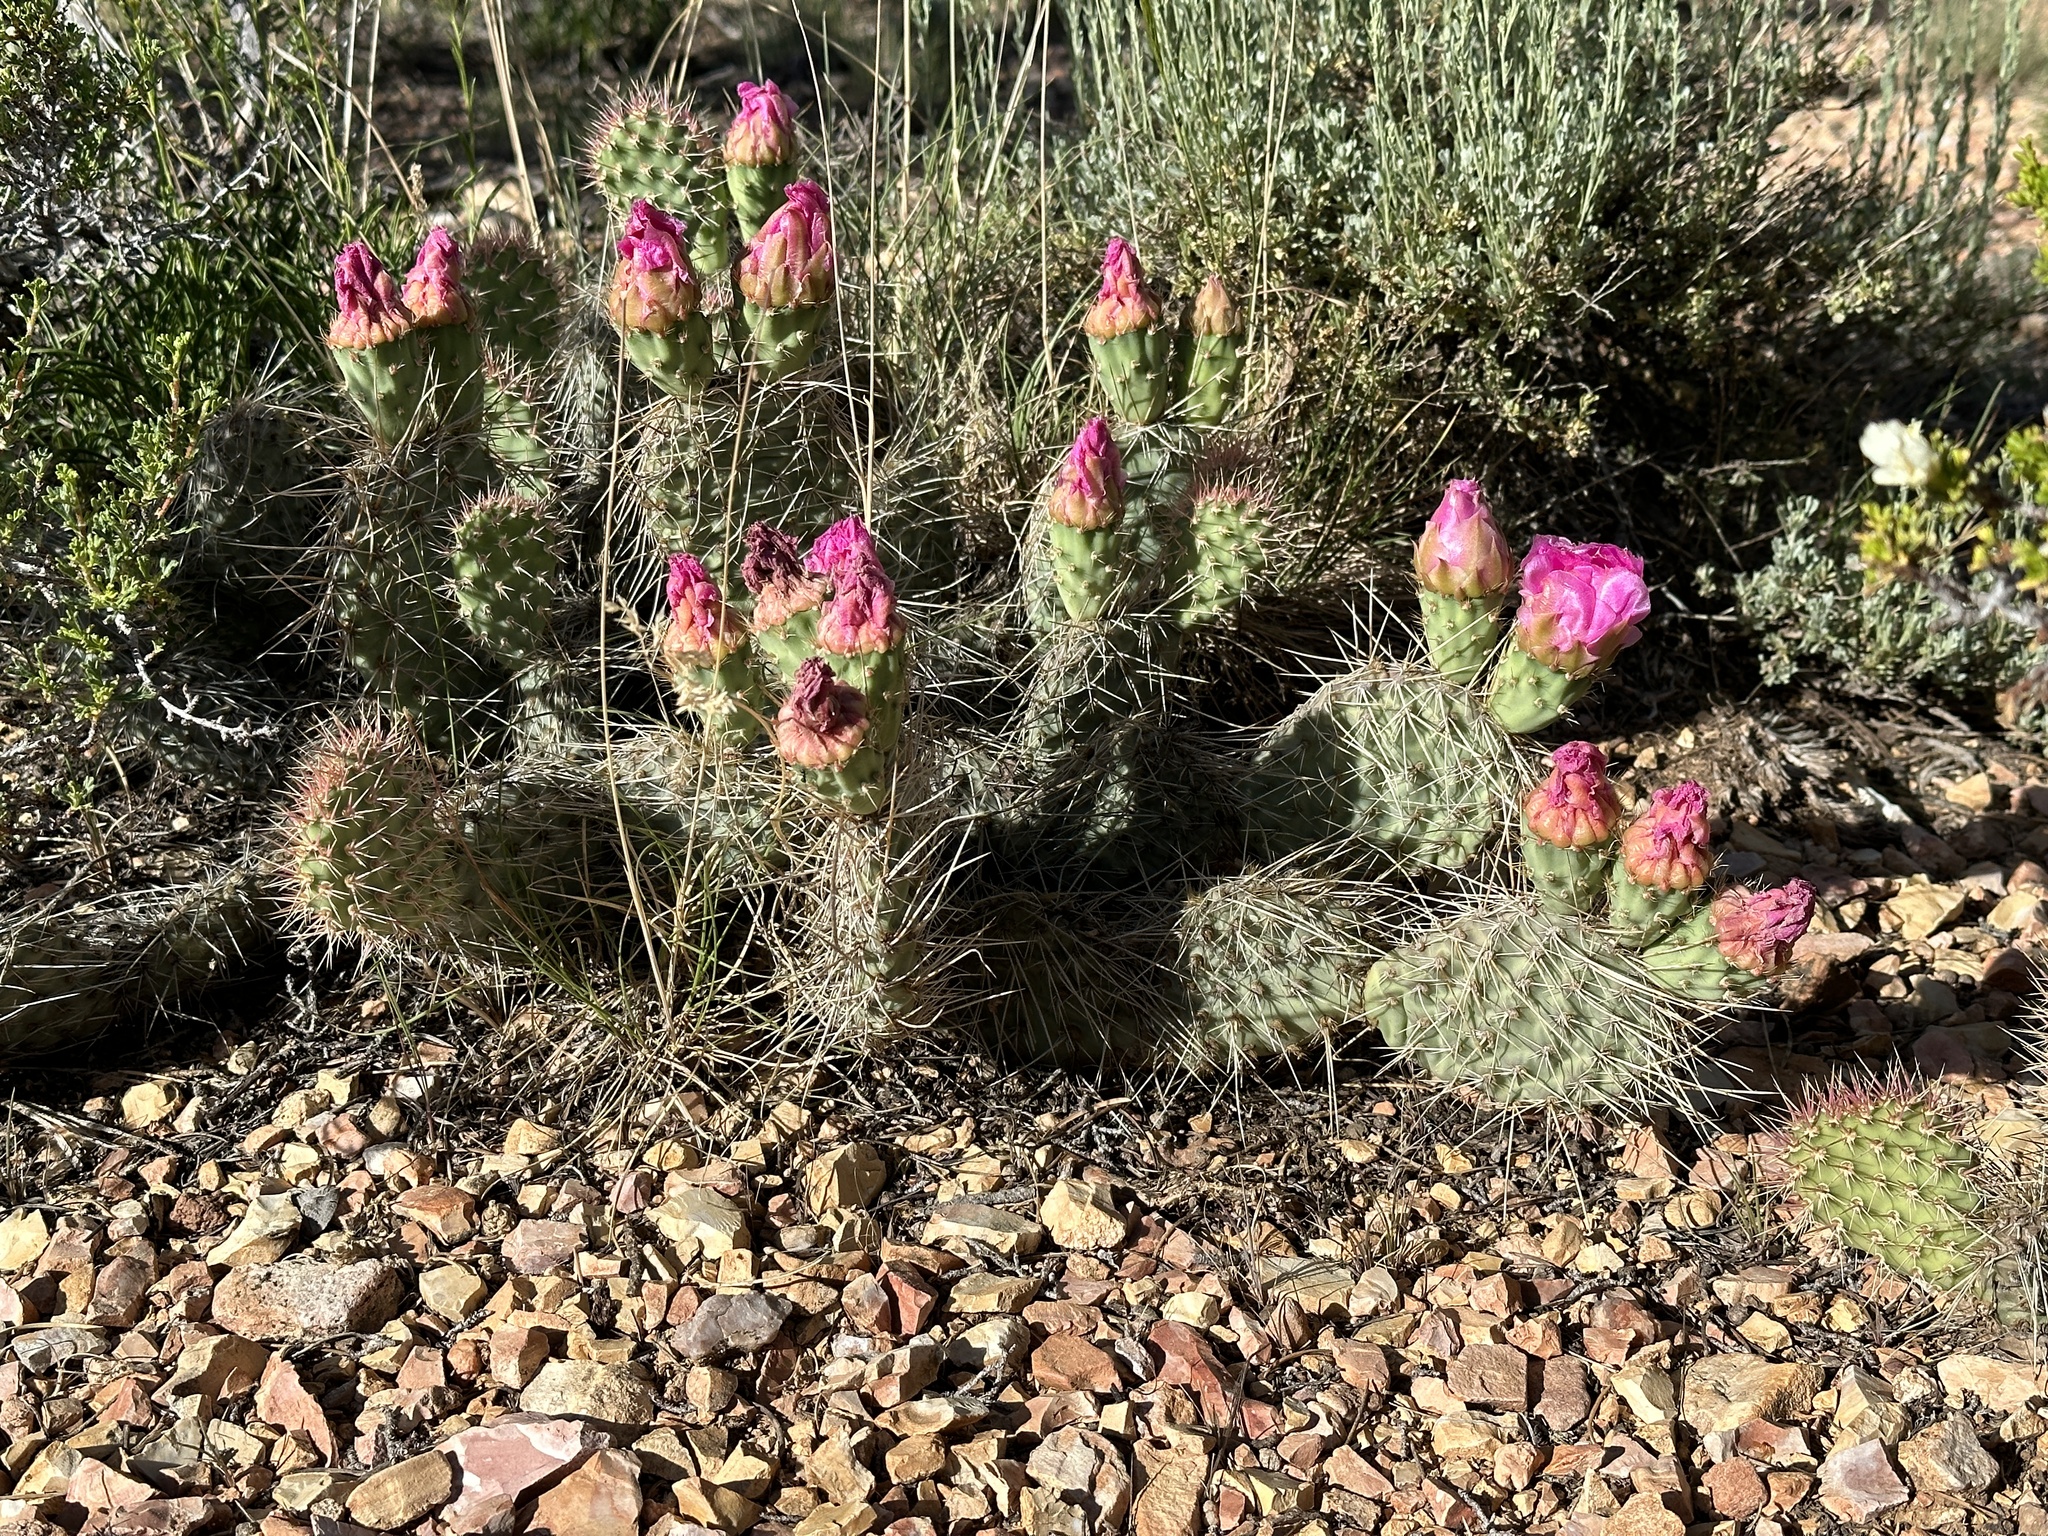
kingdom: Plantae
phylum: Tracheophyta
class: Magnoliopsida
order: Caryophyllales
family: Cactaceae
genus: Opuntia
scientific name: Opuntia polyacantha
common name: Plains prickly-pear
